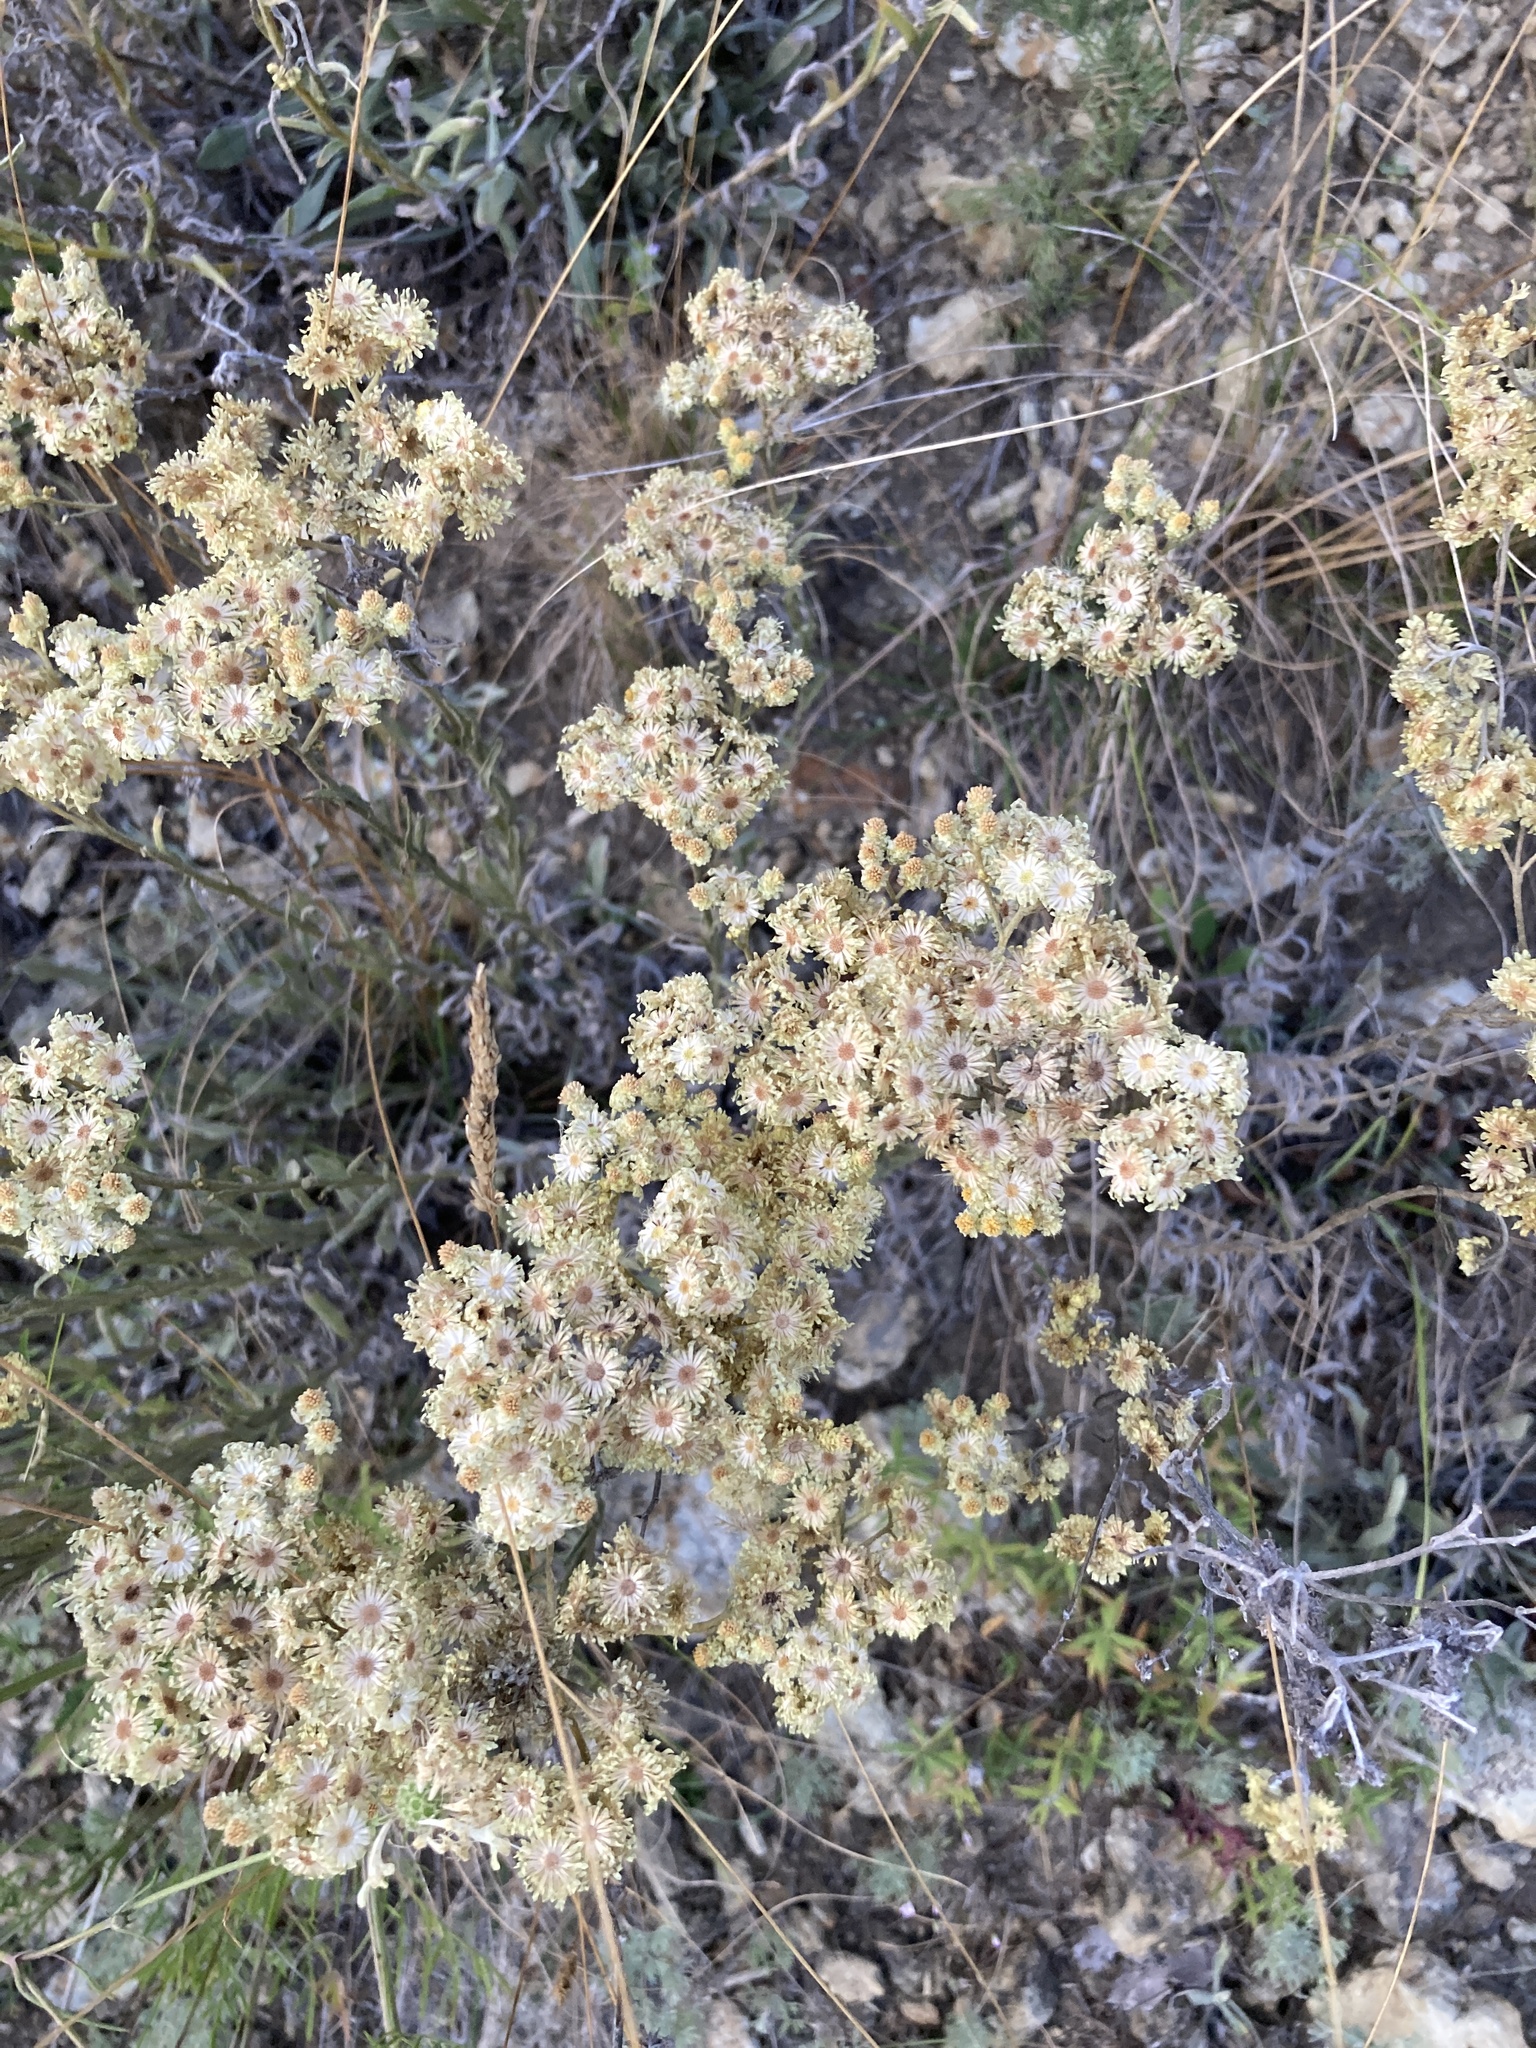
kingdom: Plantae
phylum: Tracheophyta
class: Magnoliopsida
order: Asterales
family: Asteraceae
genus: Helichrysum
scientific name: Helichrysum arenarium
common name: Strawflower
